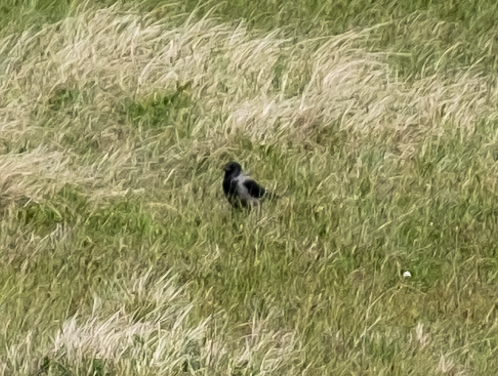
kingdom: Animalia
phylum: Chordata
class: Aves
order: Passeriformes
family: Corvidae
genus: Corvus
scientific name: Corvus cornix
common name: Hooded crow
